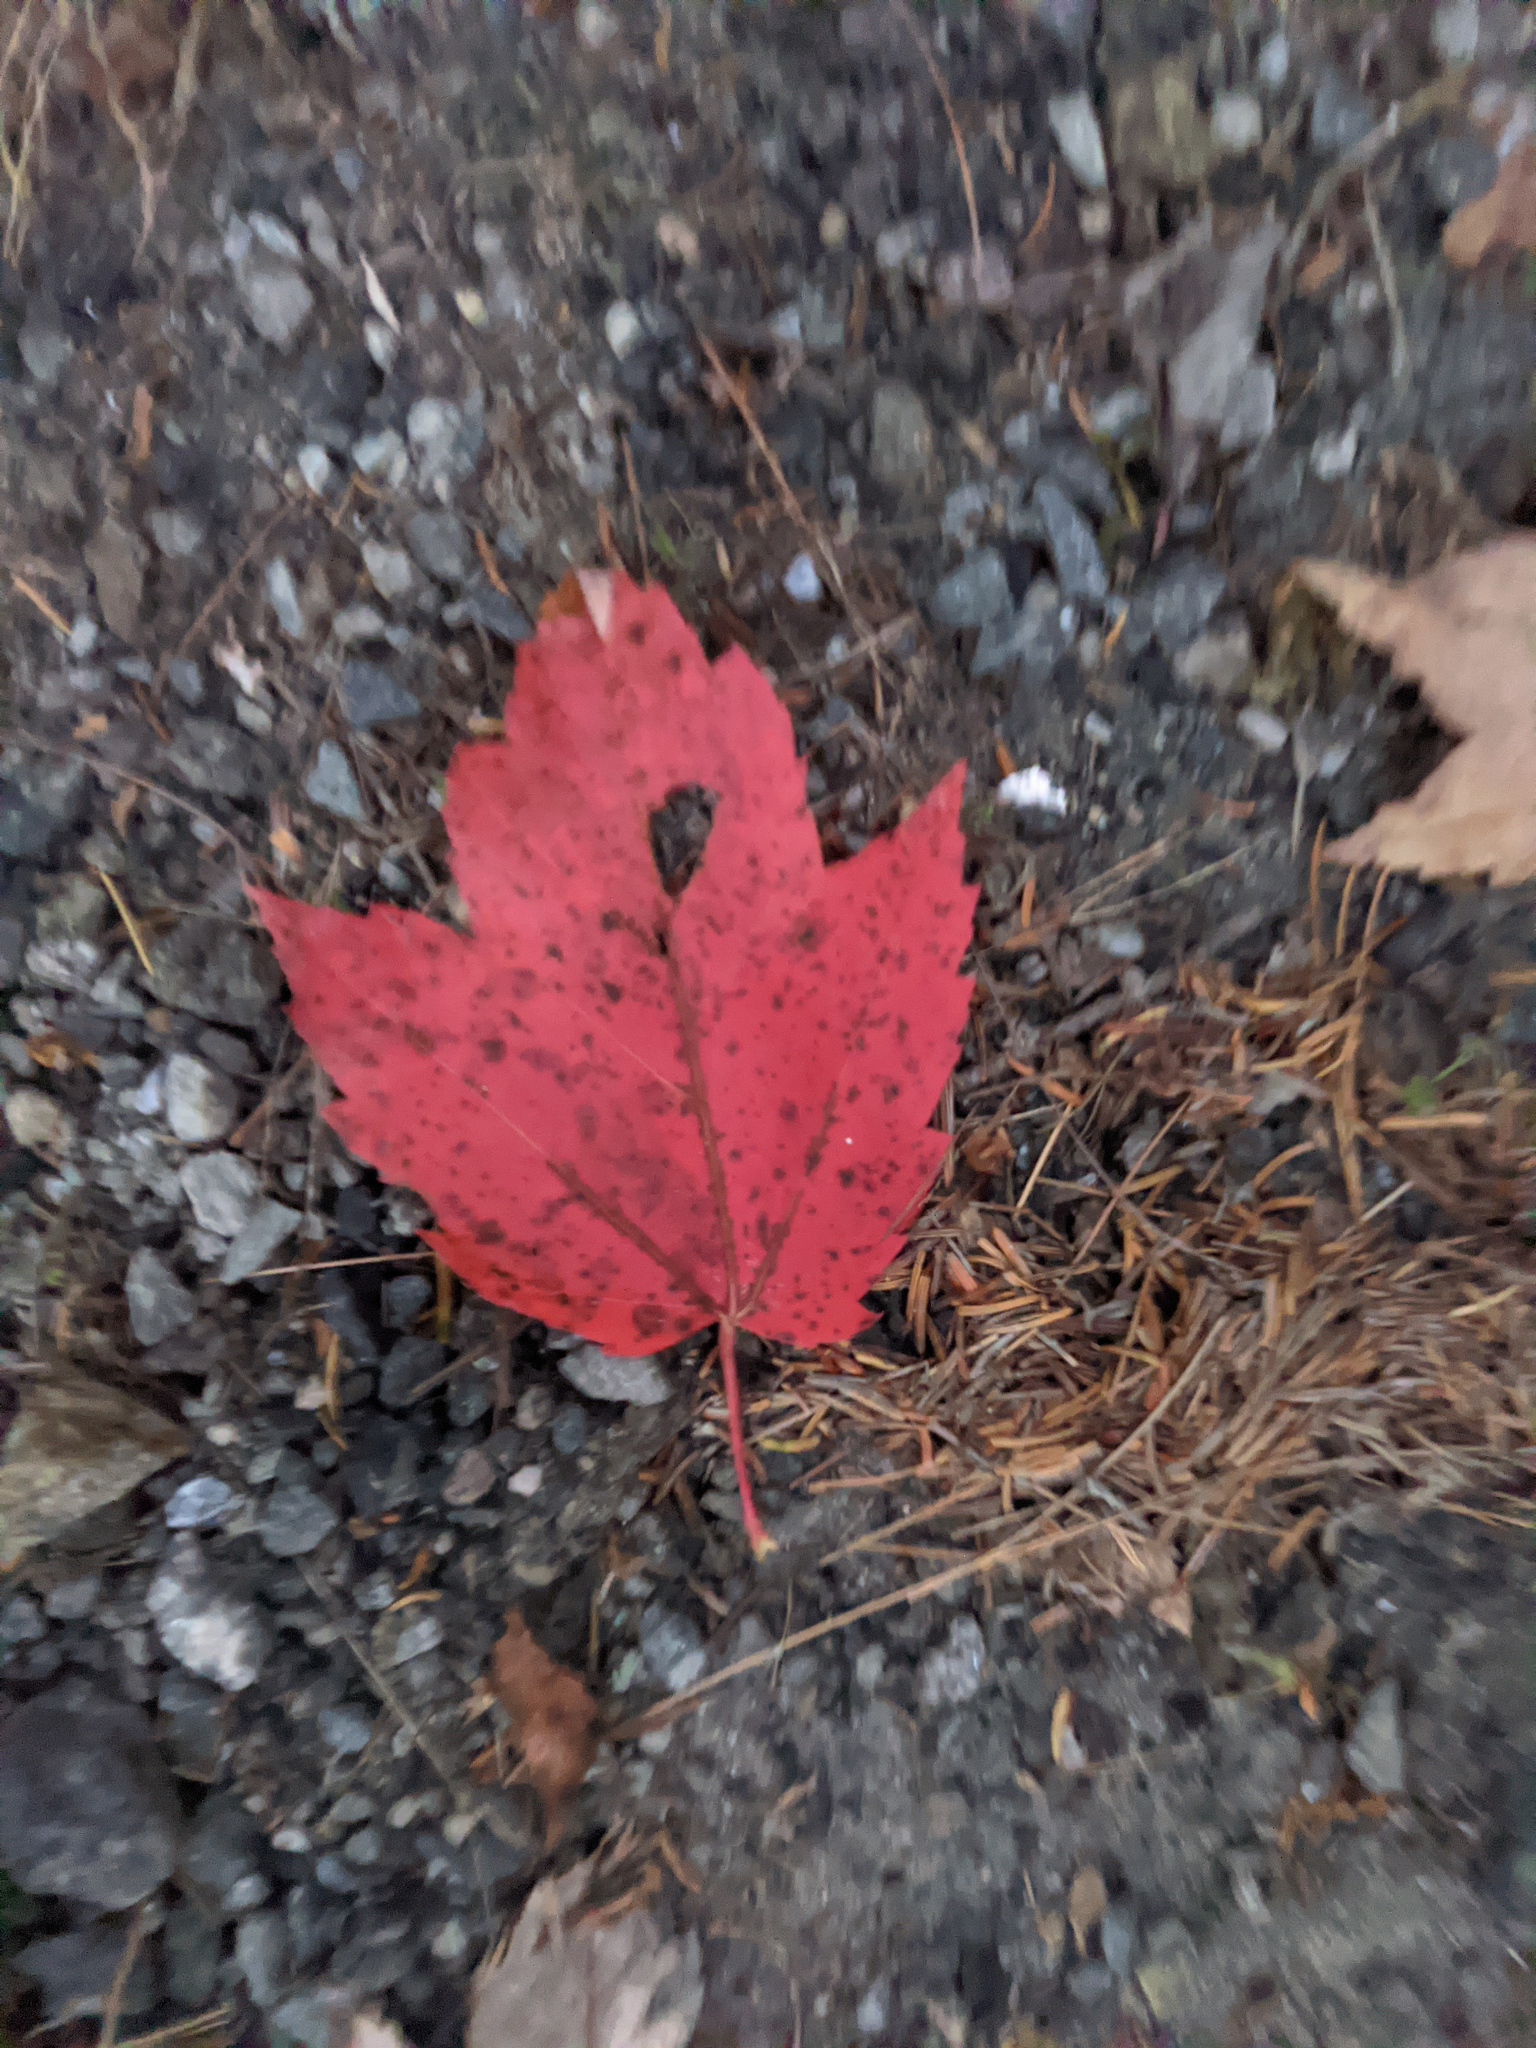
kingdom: Plantae
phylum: Tracheophyta
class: Magnoliopsida
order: Sapindales
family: Sapindaceae
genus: Acer
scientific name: Acer rubrum
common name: Red maple
